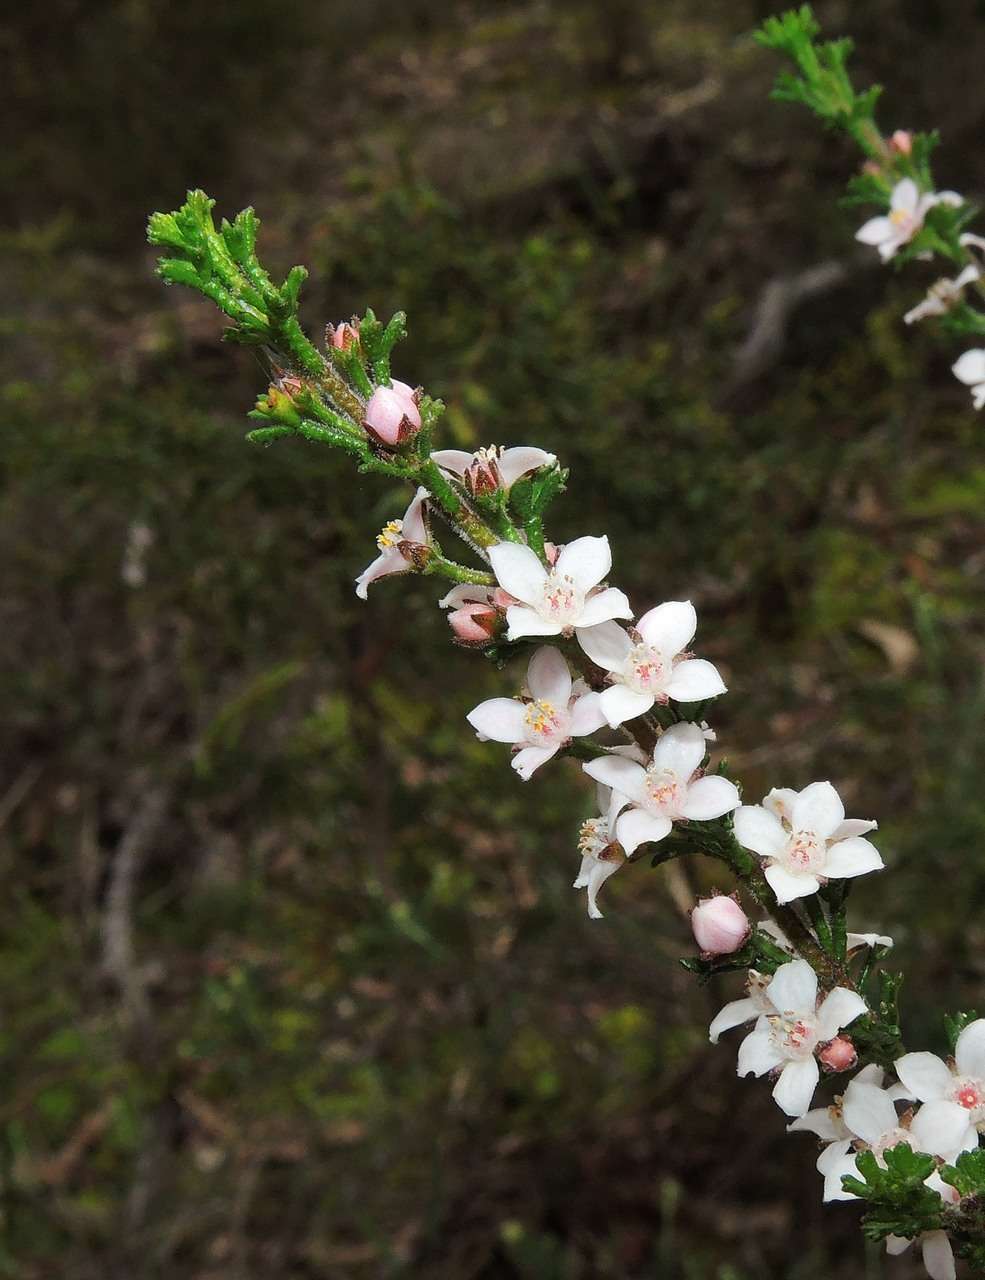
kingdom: Plantae
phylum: Tracheophyta
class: Magnoliopsida
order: Sapindales
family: Rutaceae
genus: Cyanothamnus
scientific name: Cyanothamnus anemonifolius
